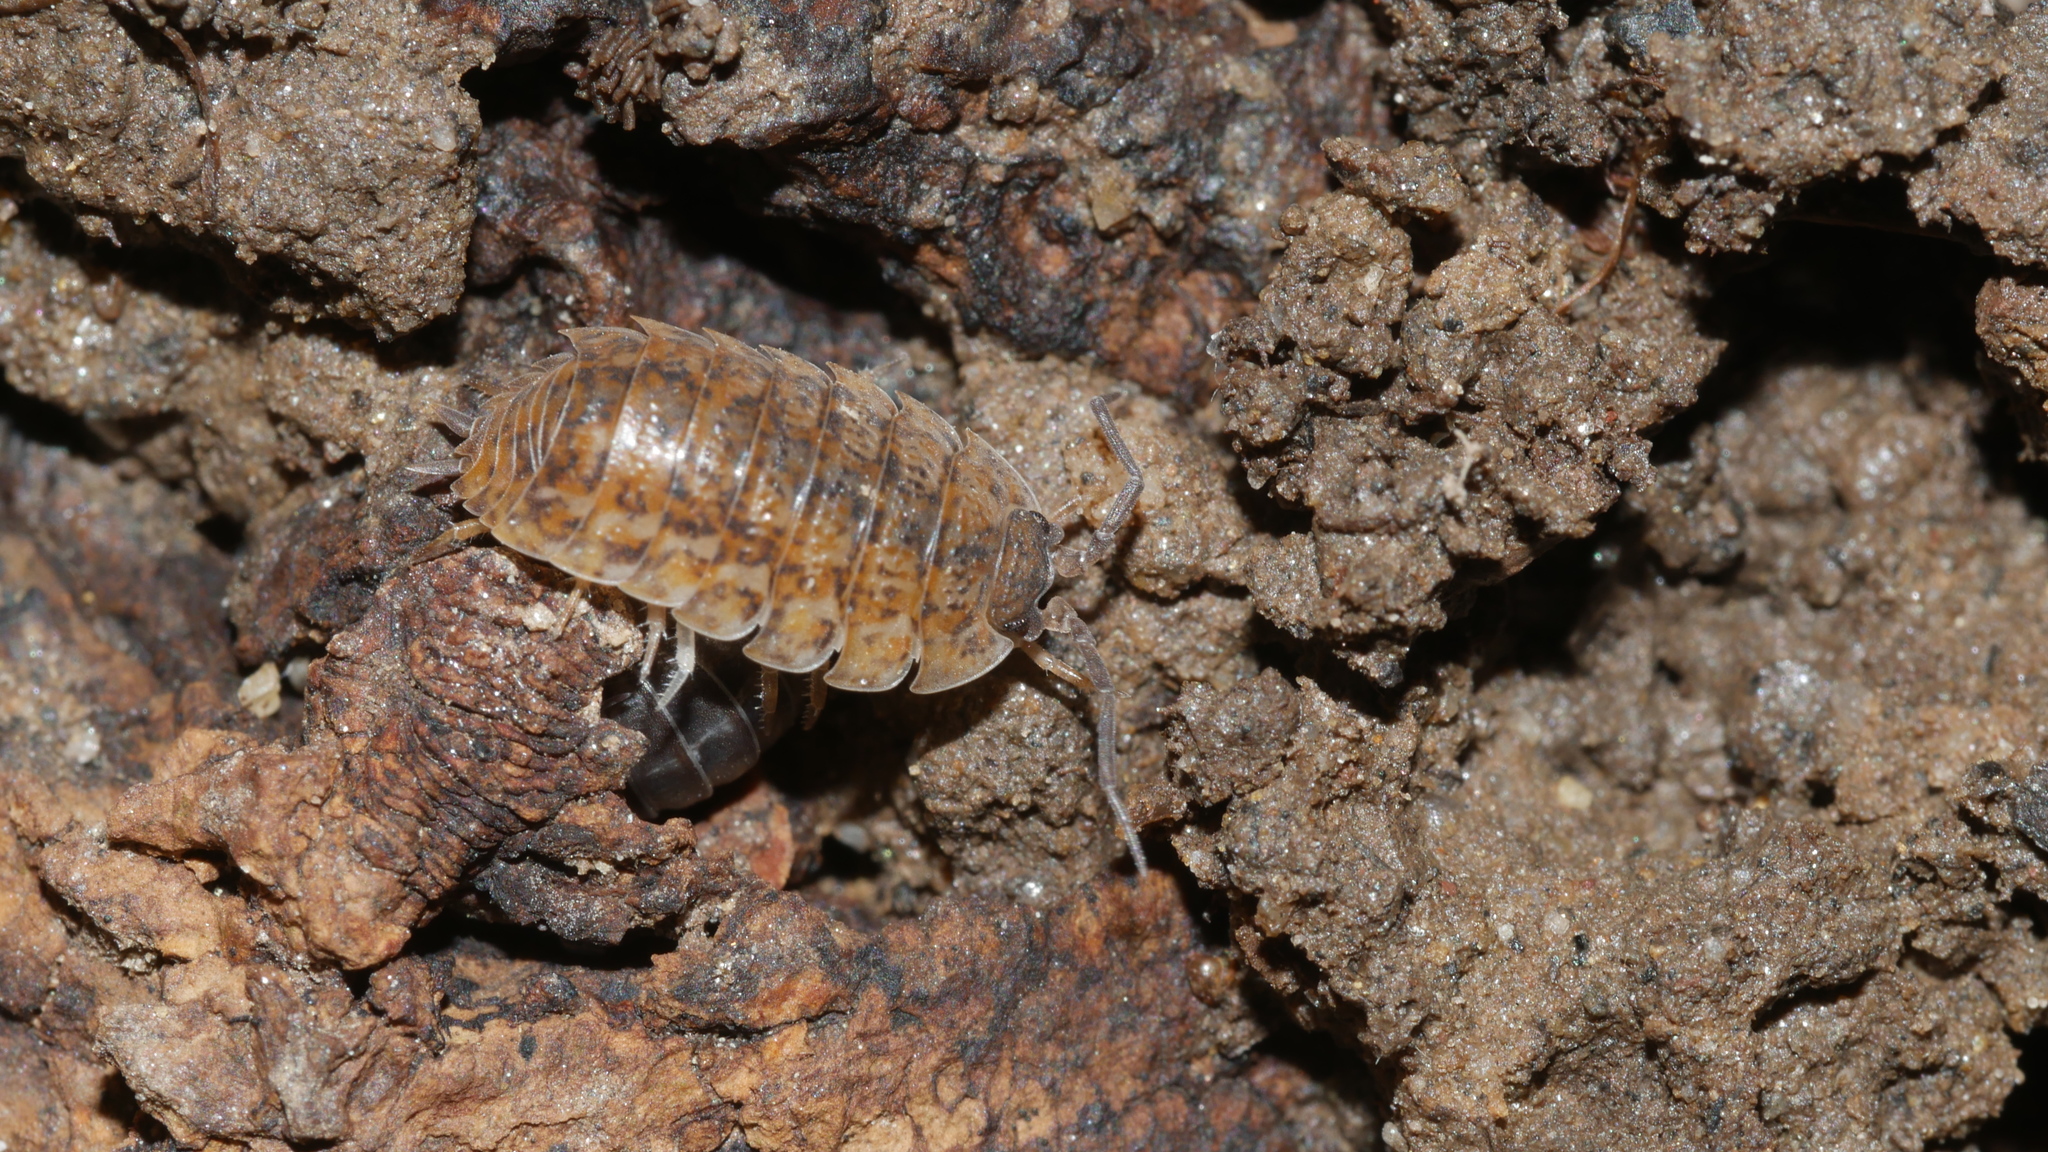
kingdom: Animalia
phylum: Arthropoda
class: Malacostraca
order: Isopoda
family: Trachelipodidae
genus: Trachelipus
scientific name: Trachelipus rathkii
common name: Isopod
